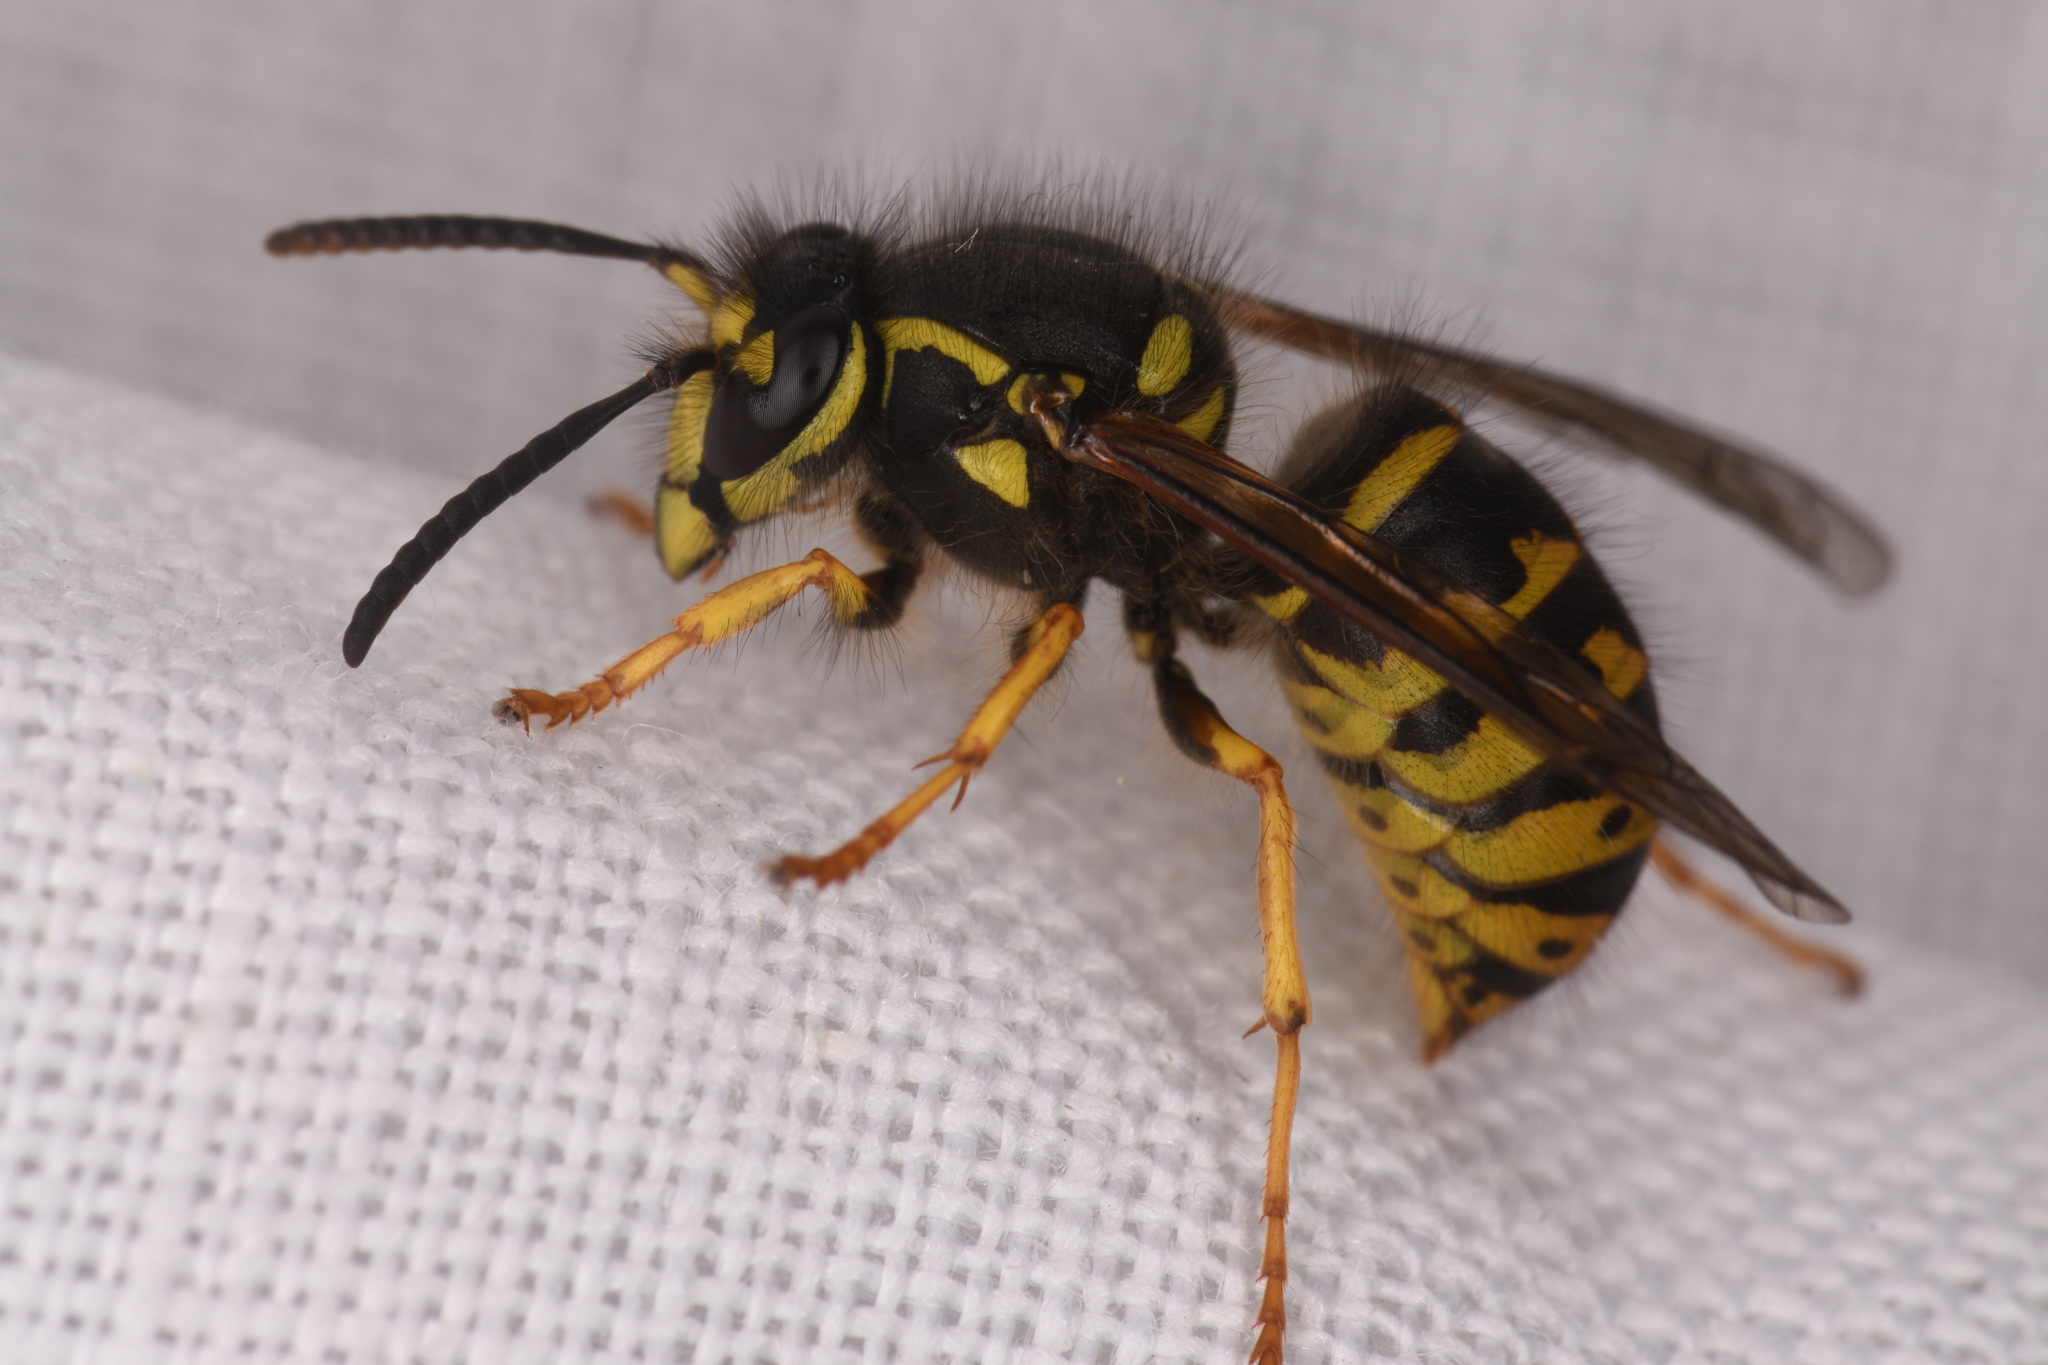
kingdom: Animalia
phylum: Arthropoda
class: Insecta
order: Hymenoptera
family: Vespidae
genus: Dolichovespula
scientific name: Dolichovespula arenaria
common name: Aerial yellowjacket
